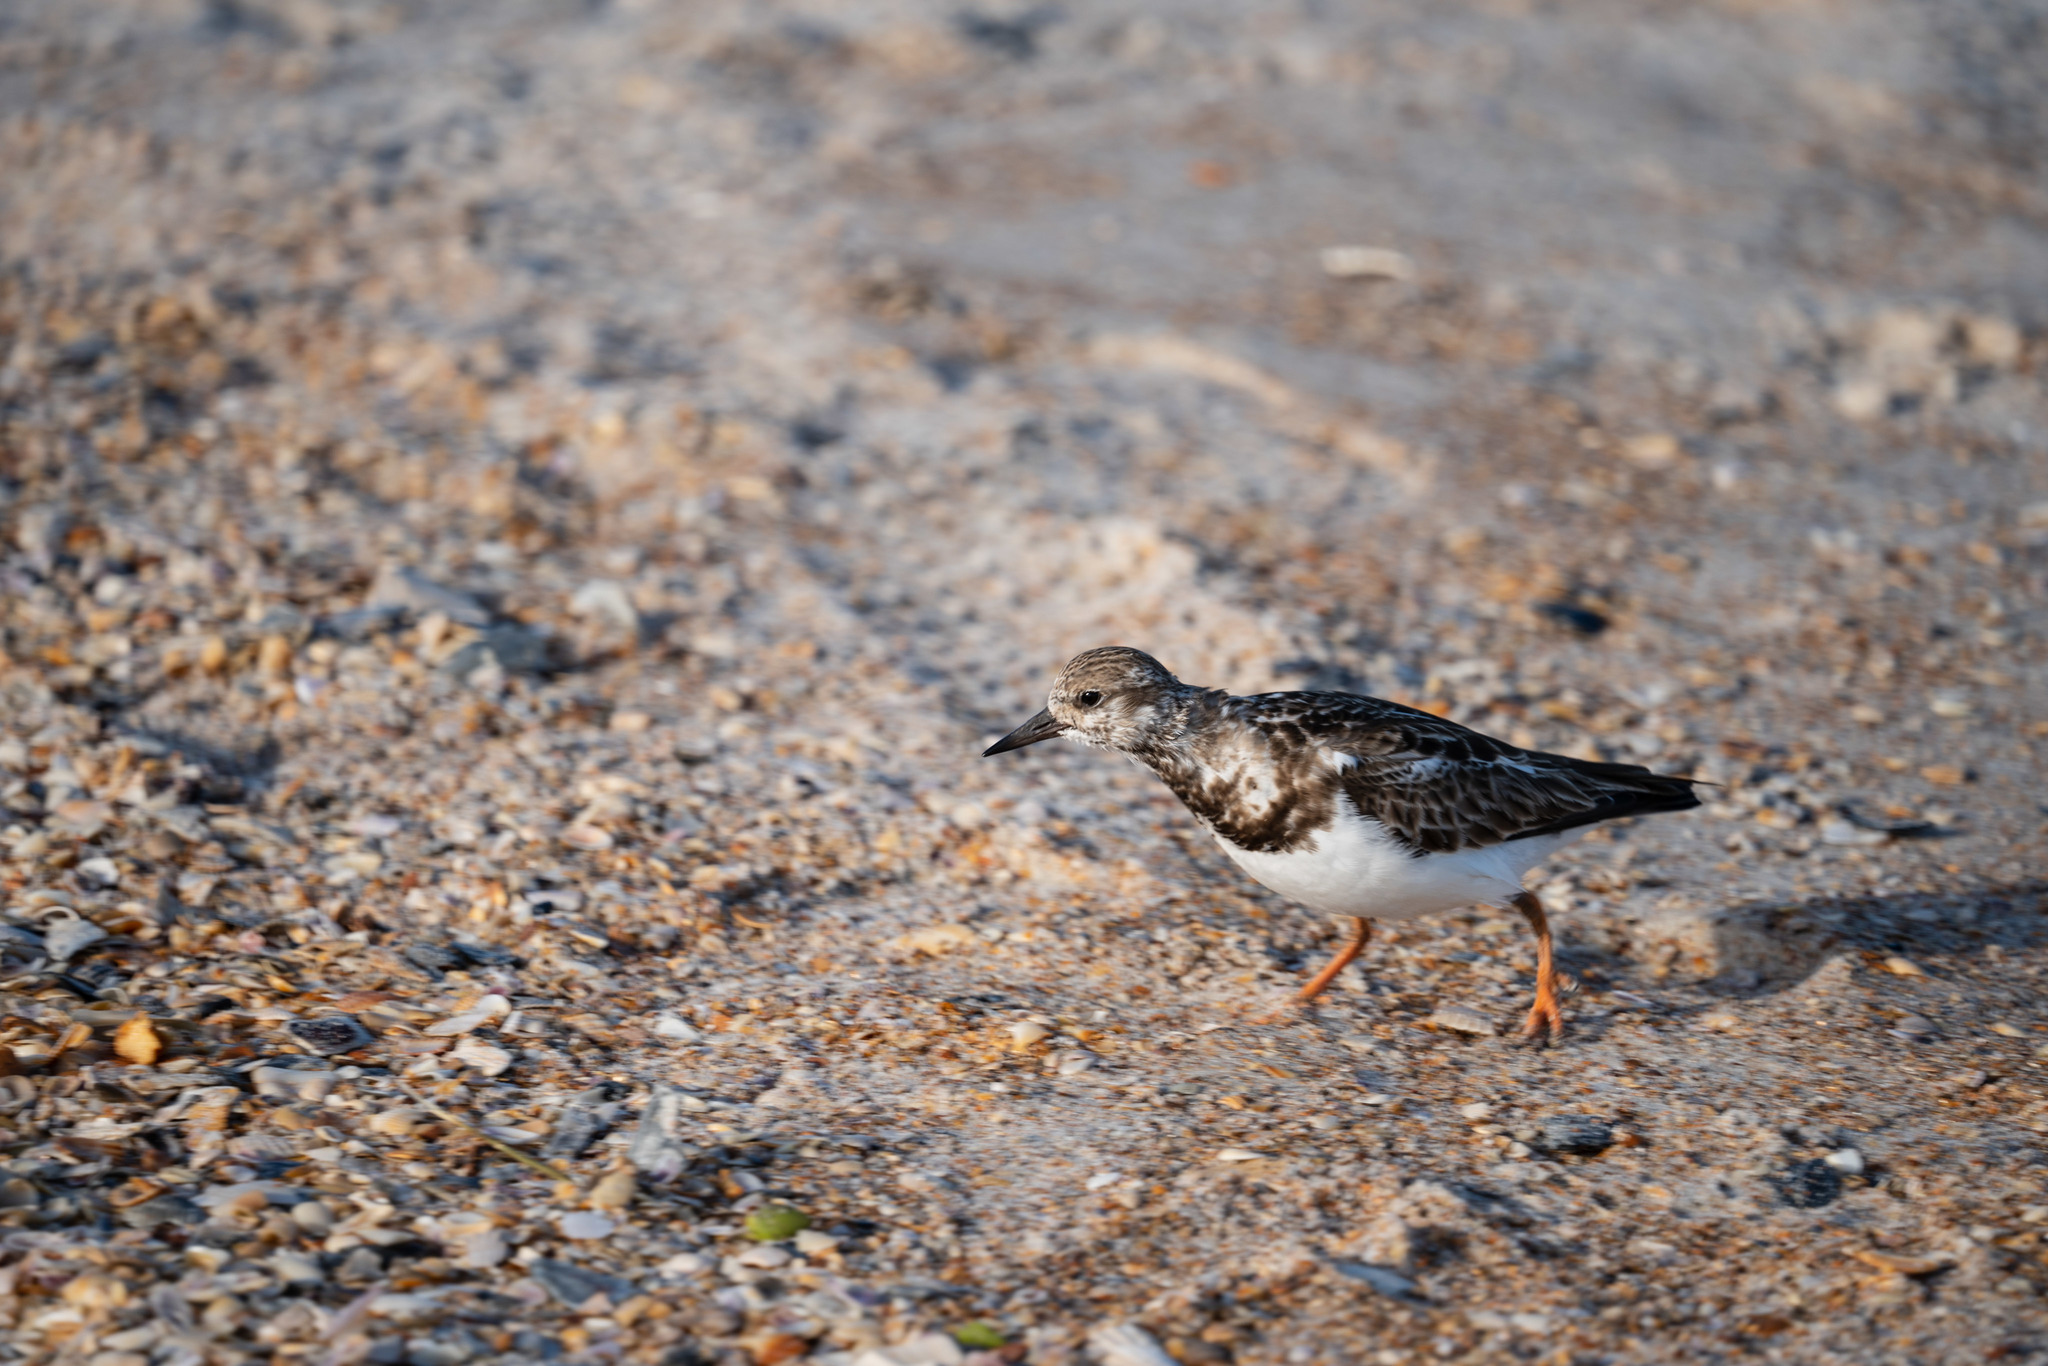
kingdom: Animalia
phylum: Chordata
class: Aves
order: Charadriiformes
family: Scolopacidae
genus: Arenaria
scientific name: Arenaria interpres
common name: Ruddy turnstone
